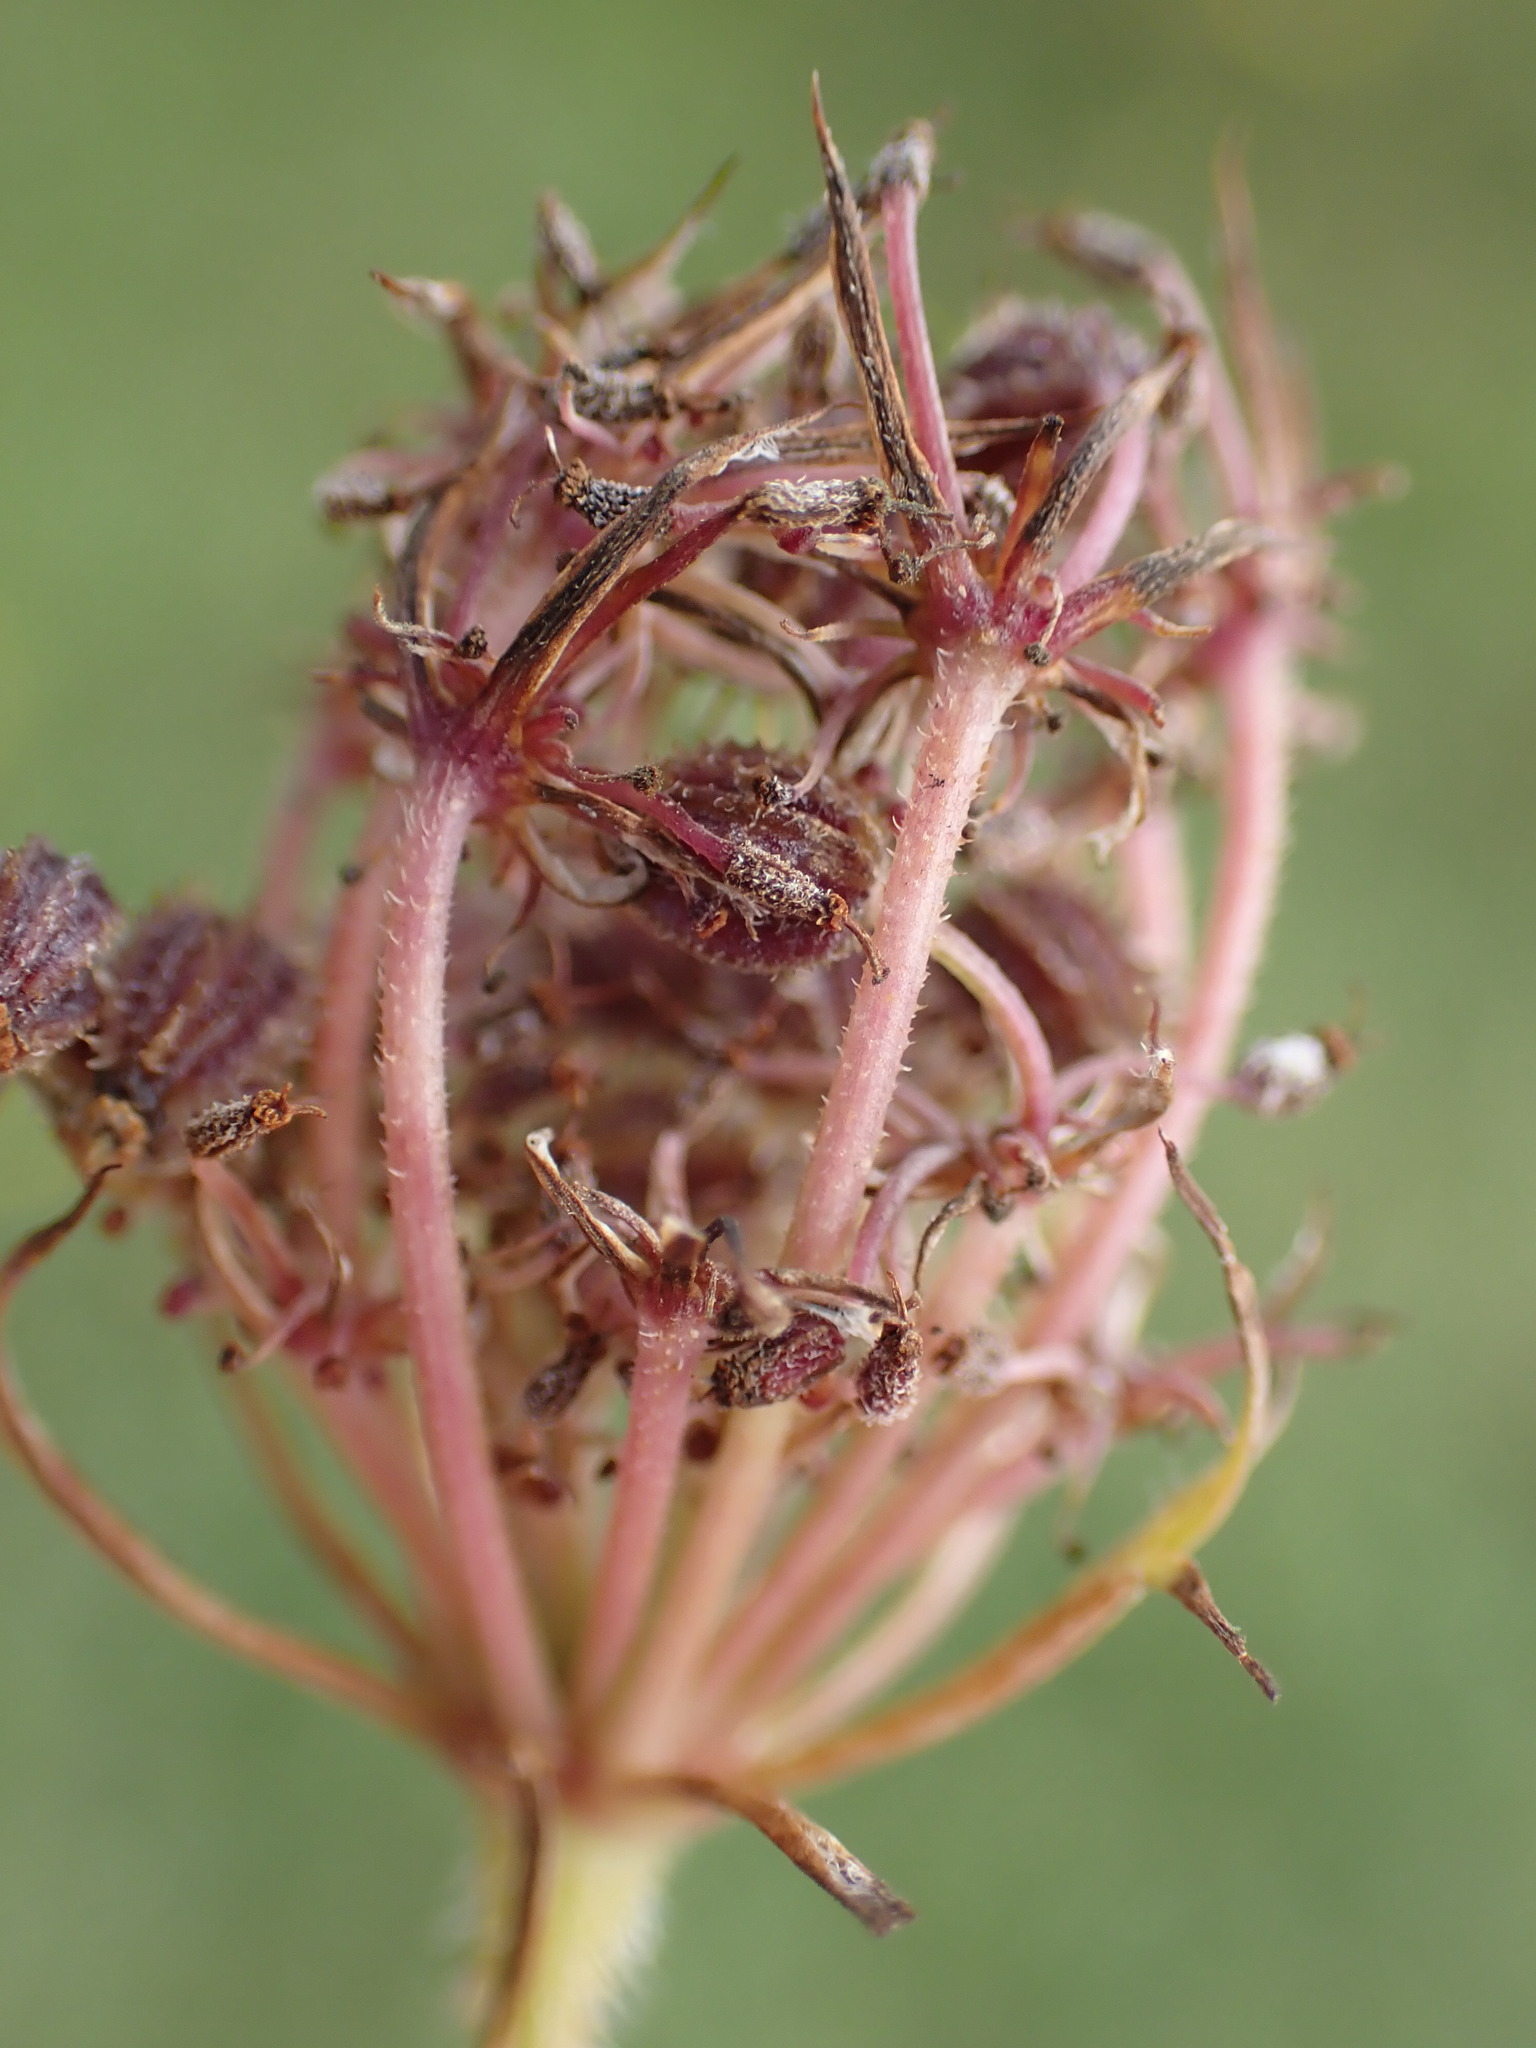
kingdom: Plantae
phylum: Tracheophyta
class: Magnoliopsida
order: Apiales
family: Apiaceae
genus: Daucus
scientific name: Daucus carota
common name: Wild carrot
